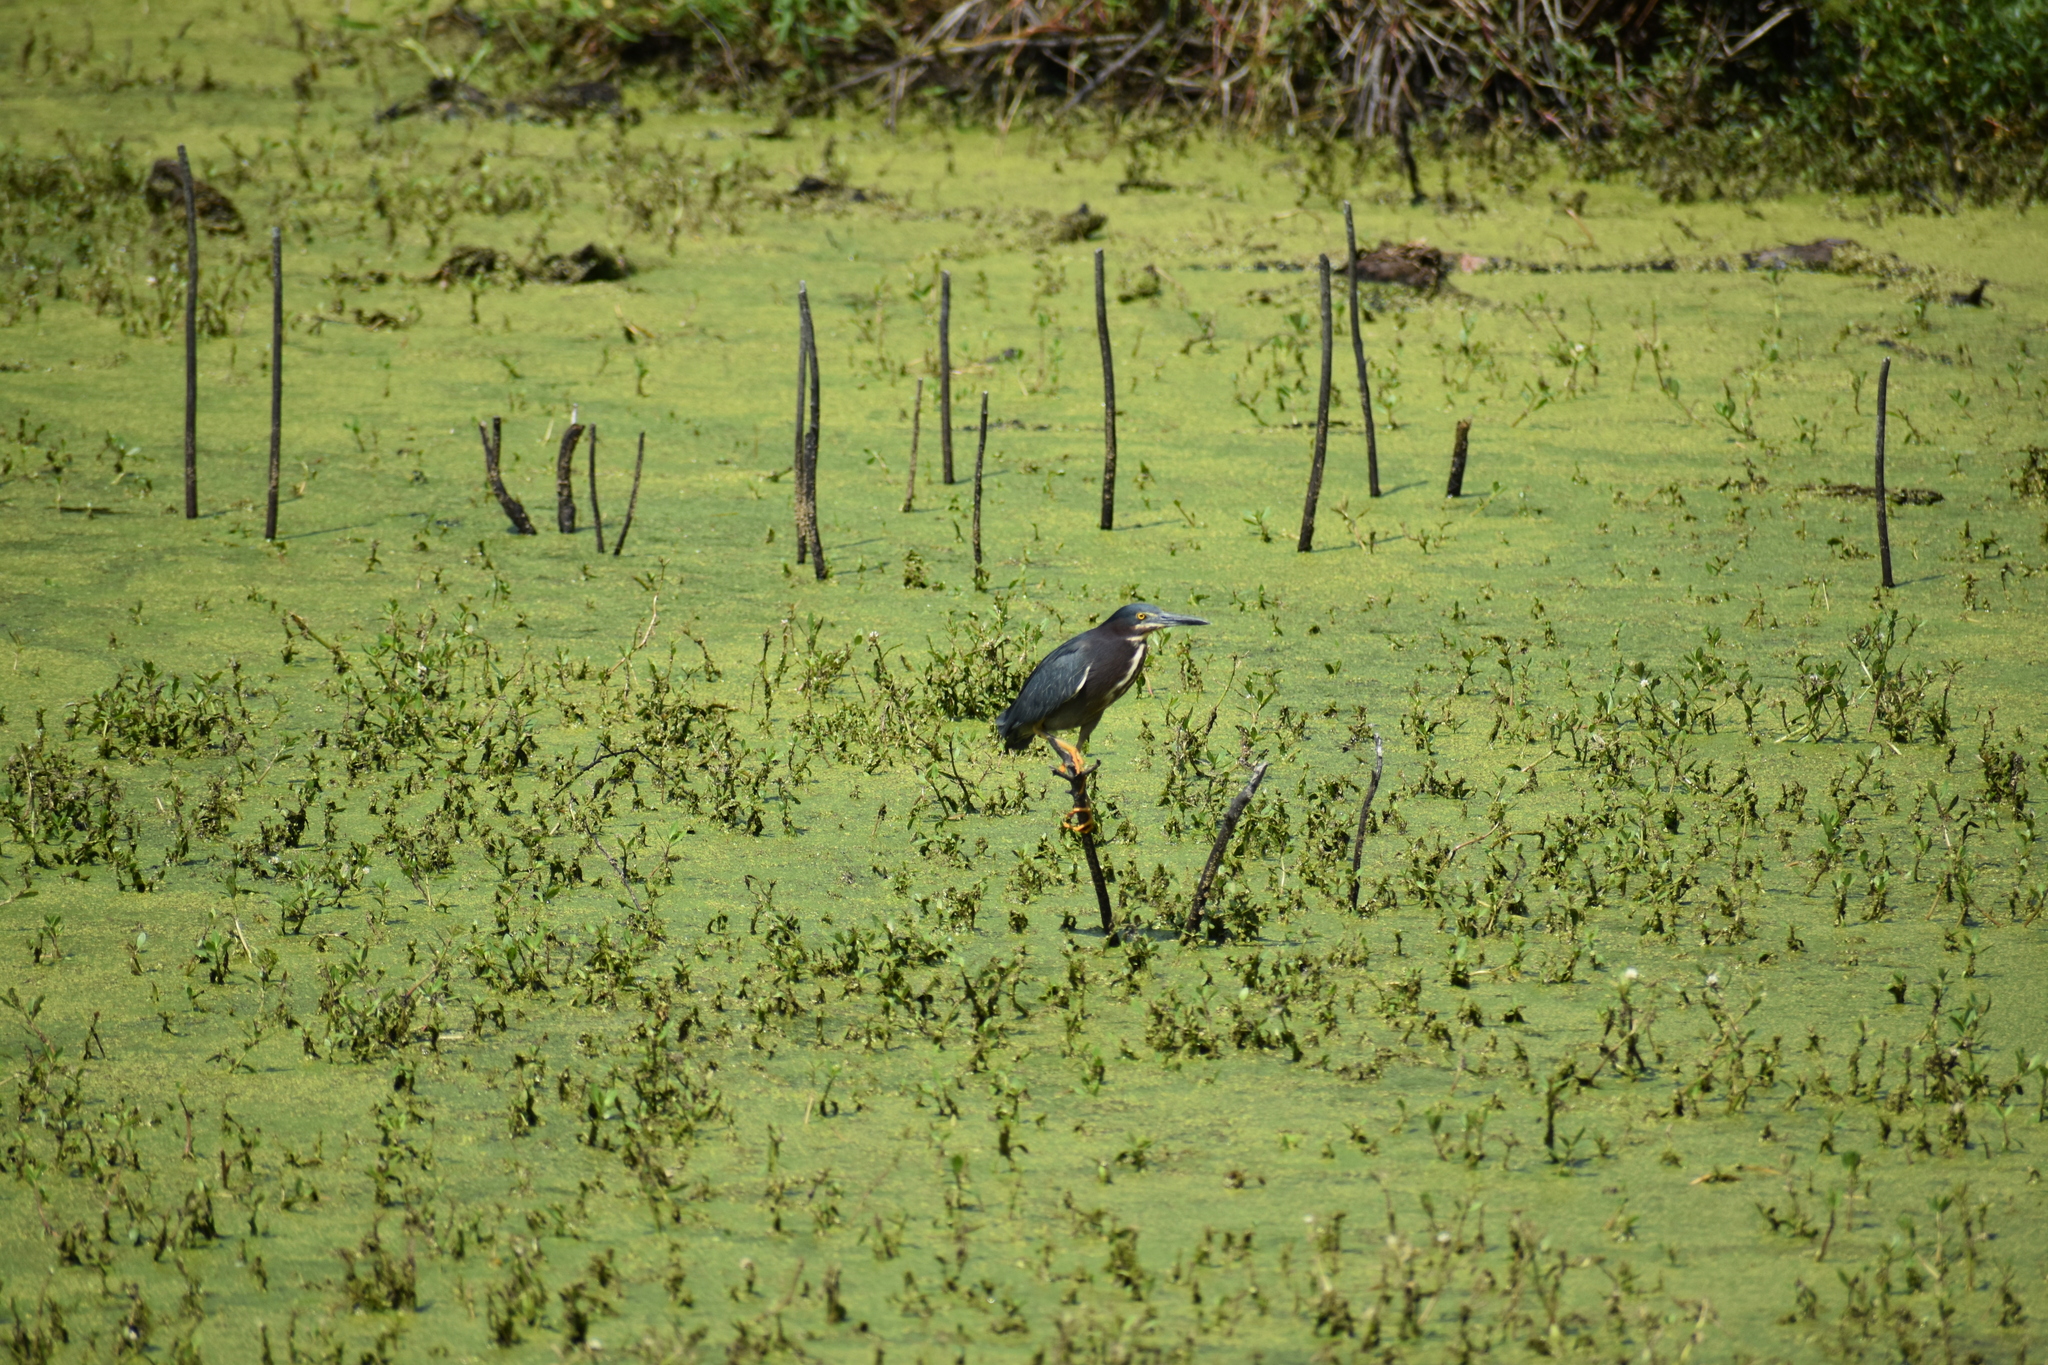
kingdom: Animalia
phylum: Chordata
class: Aves
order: Pelecaniformes
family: Ardeidae
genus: Butorides
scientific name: Butorides virescens
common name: Green heron
